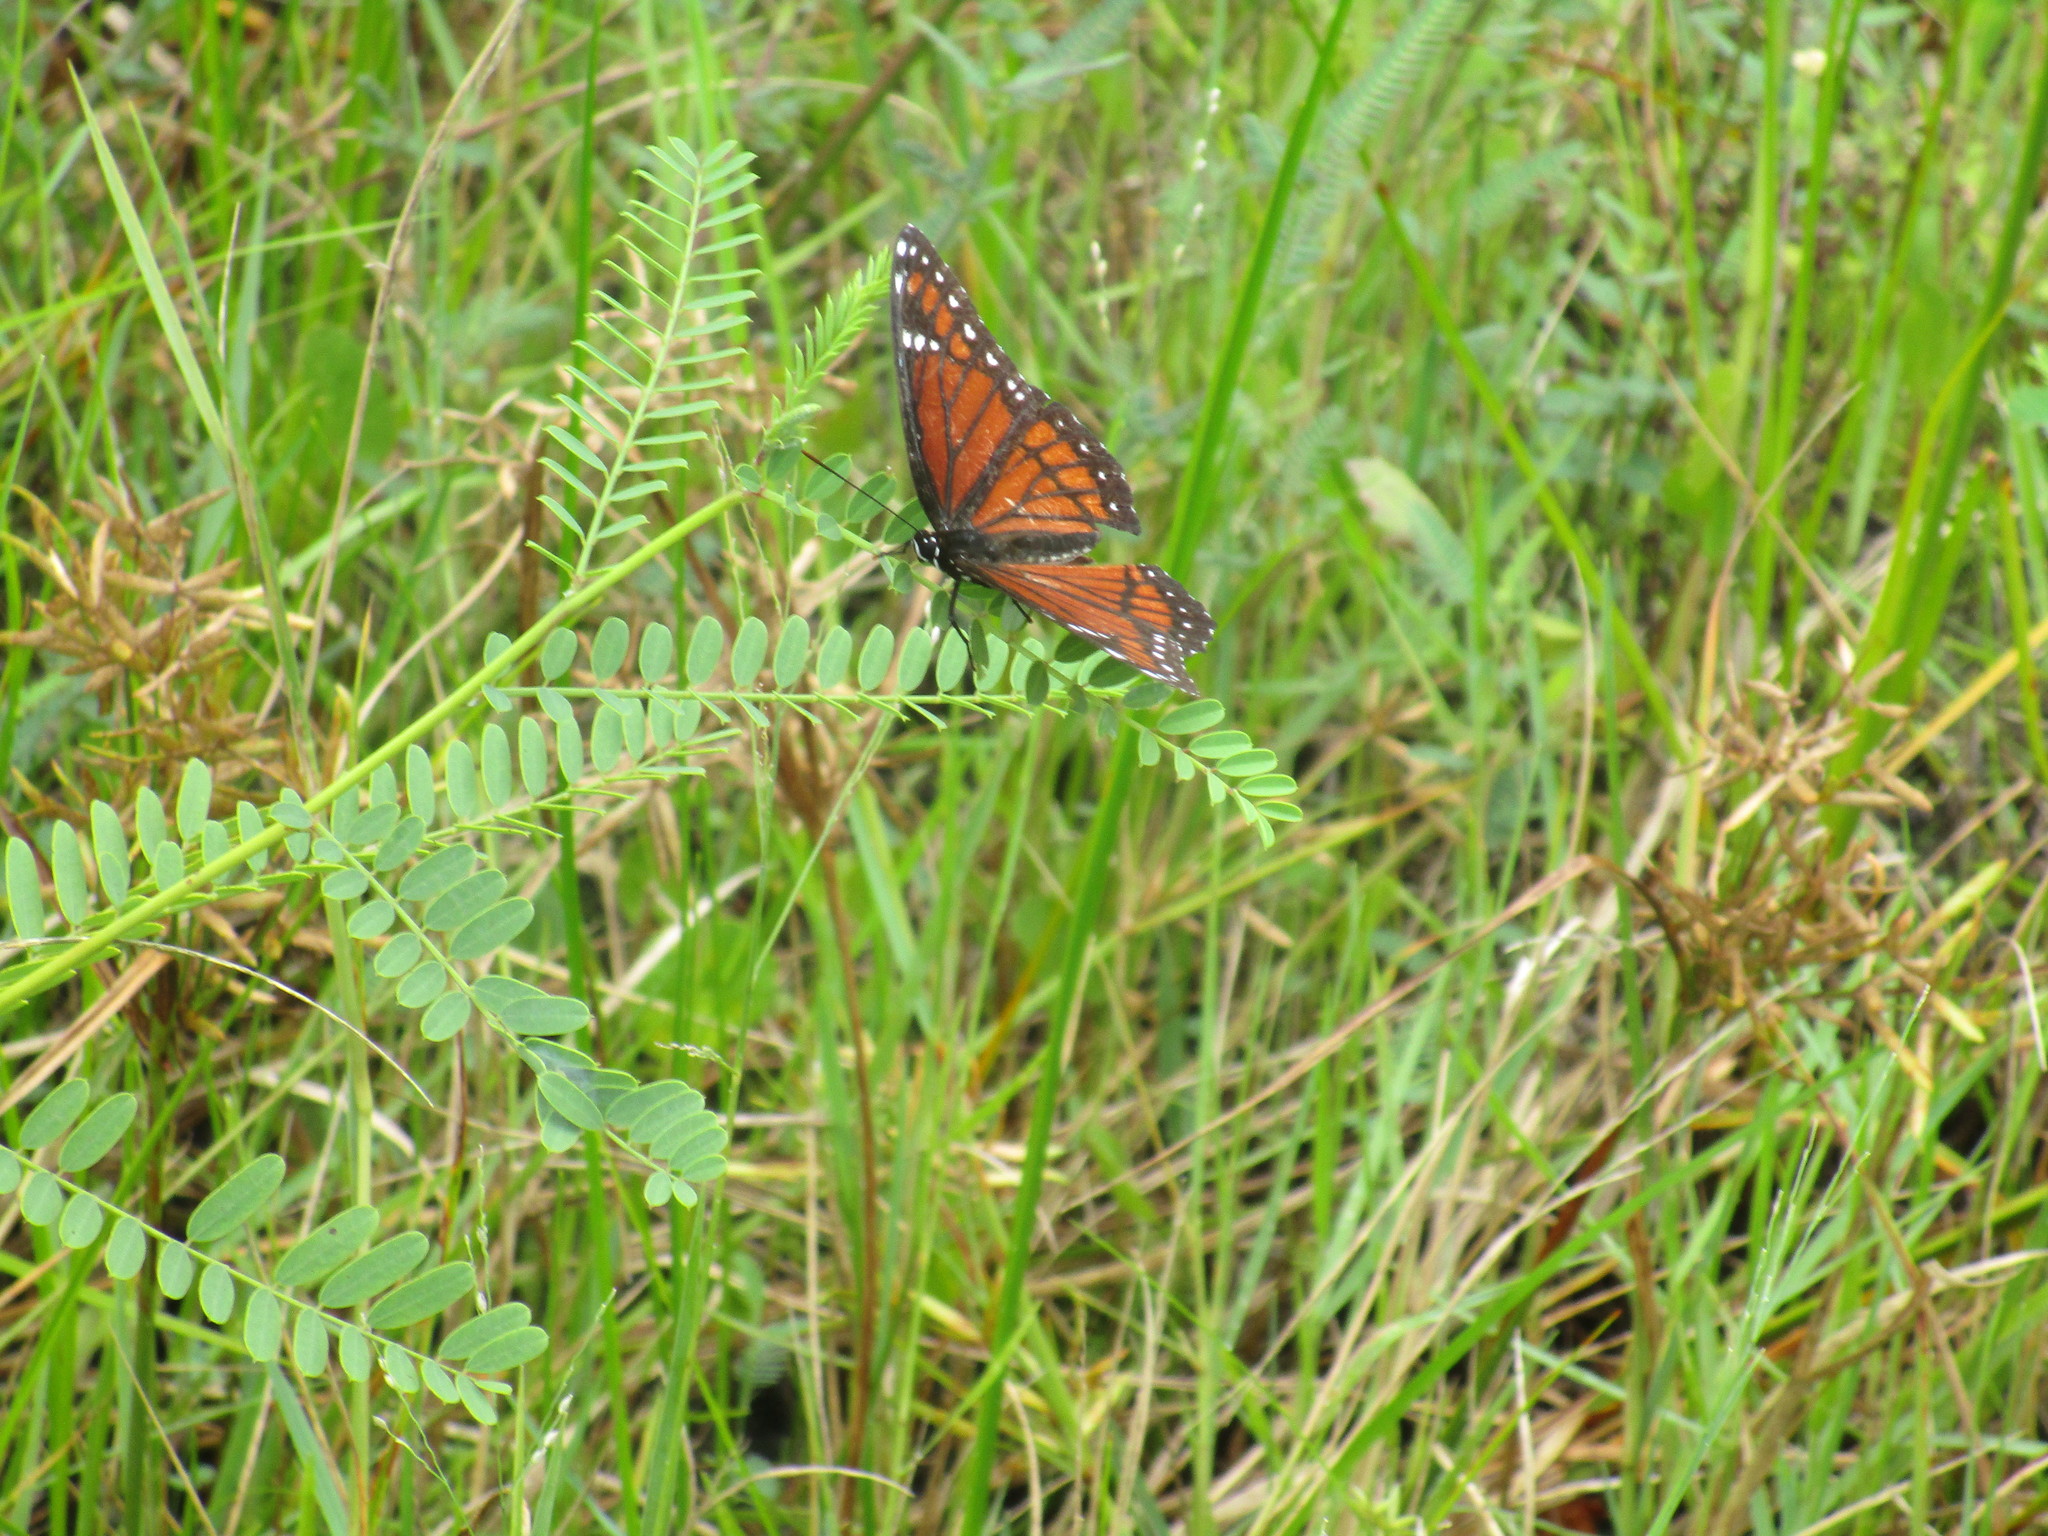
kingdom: Animalia
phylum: Arthropoda
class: Insecta
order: Lepidoptera
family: Nymphalidae
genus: Limenitis
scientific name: Limenitis archippus
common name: Viceroy
